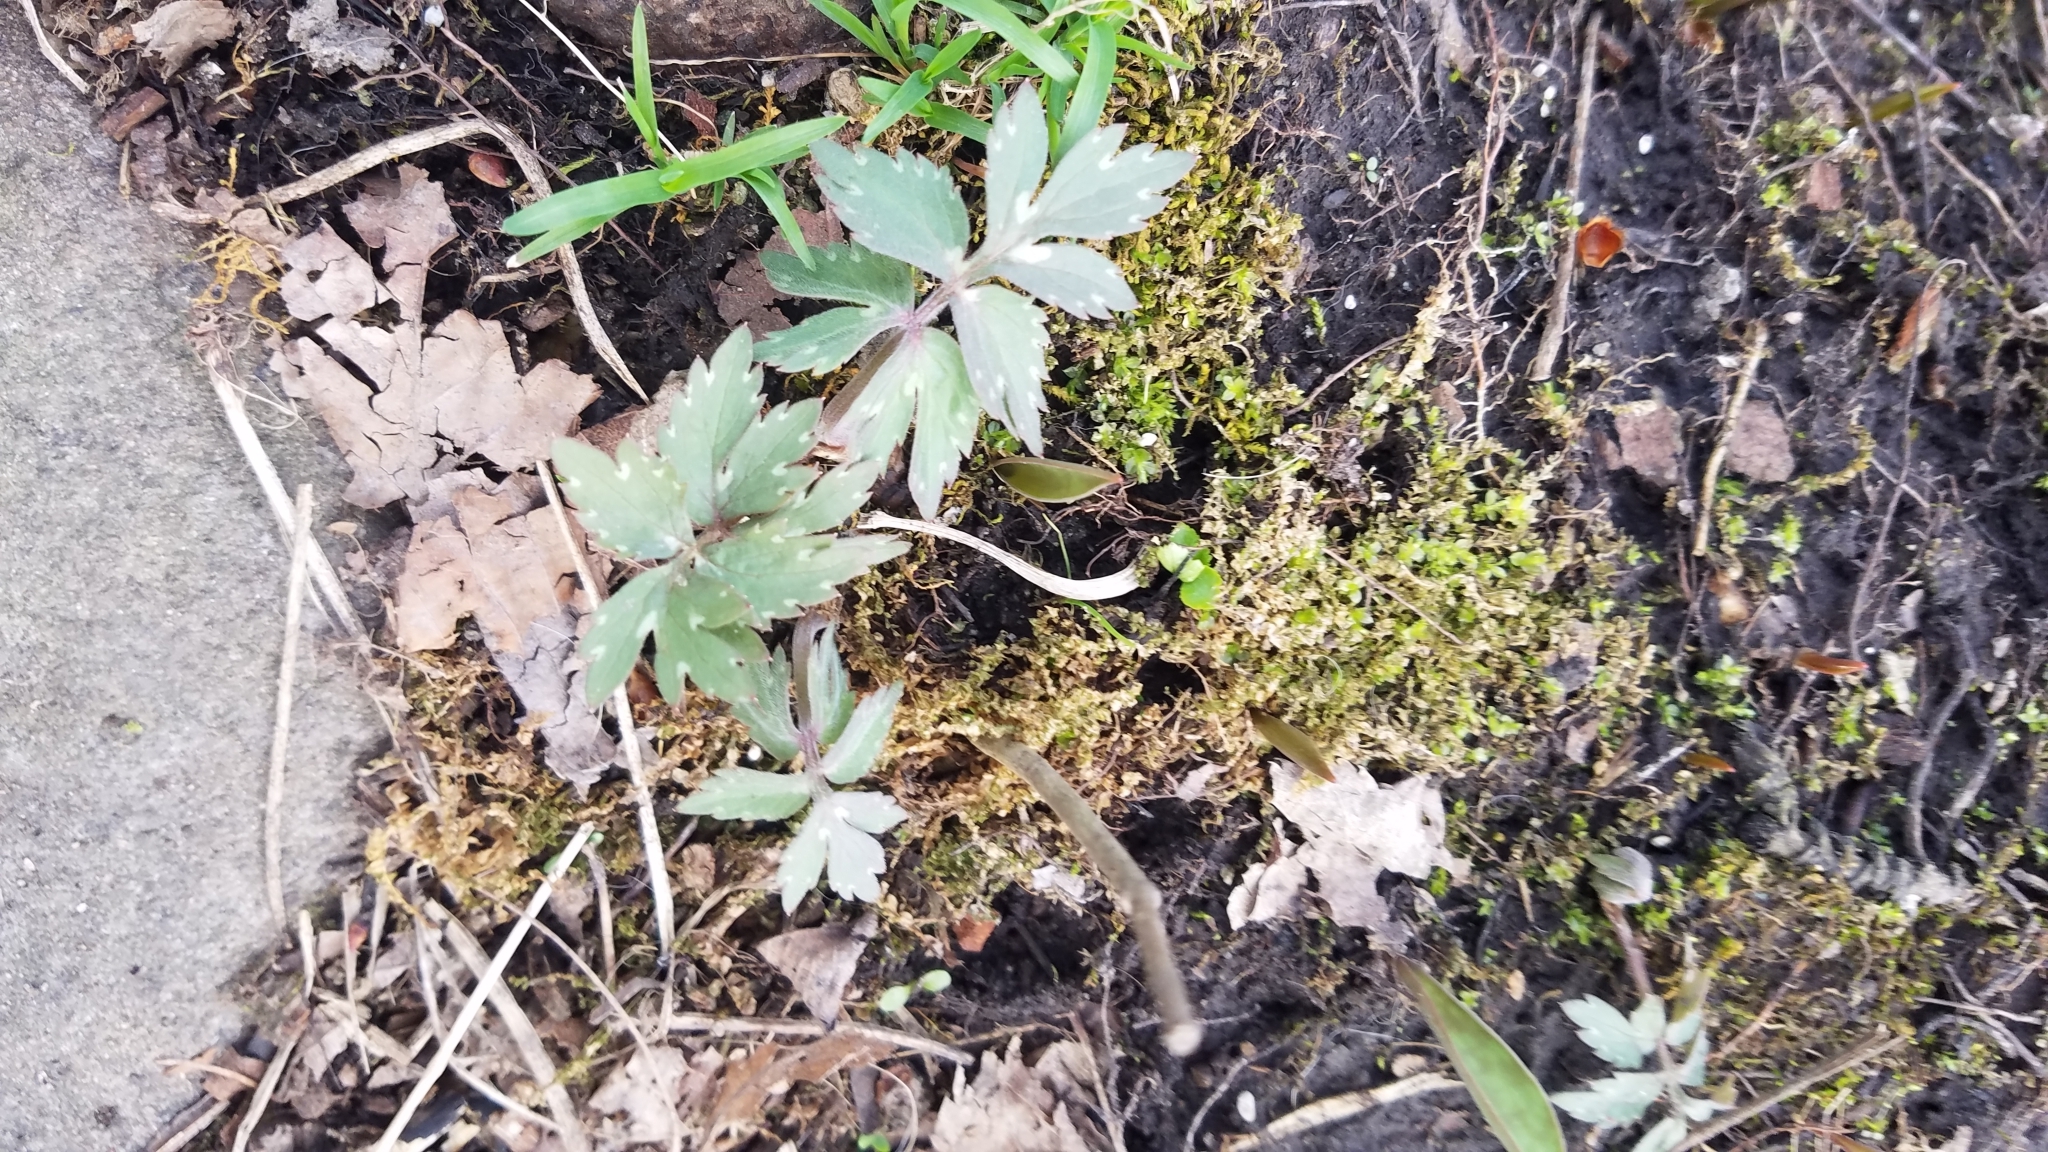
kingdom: Plantae
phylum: Tracheophyta
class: Magnoliopsida
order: Boraginales
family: Hydrophyllaceae
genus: Hydrophyllum
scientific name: Hydrophyllum virginianum
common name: Virginia waterleaf
